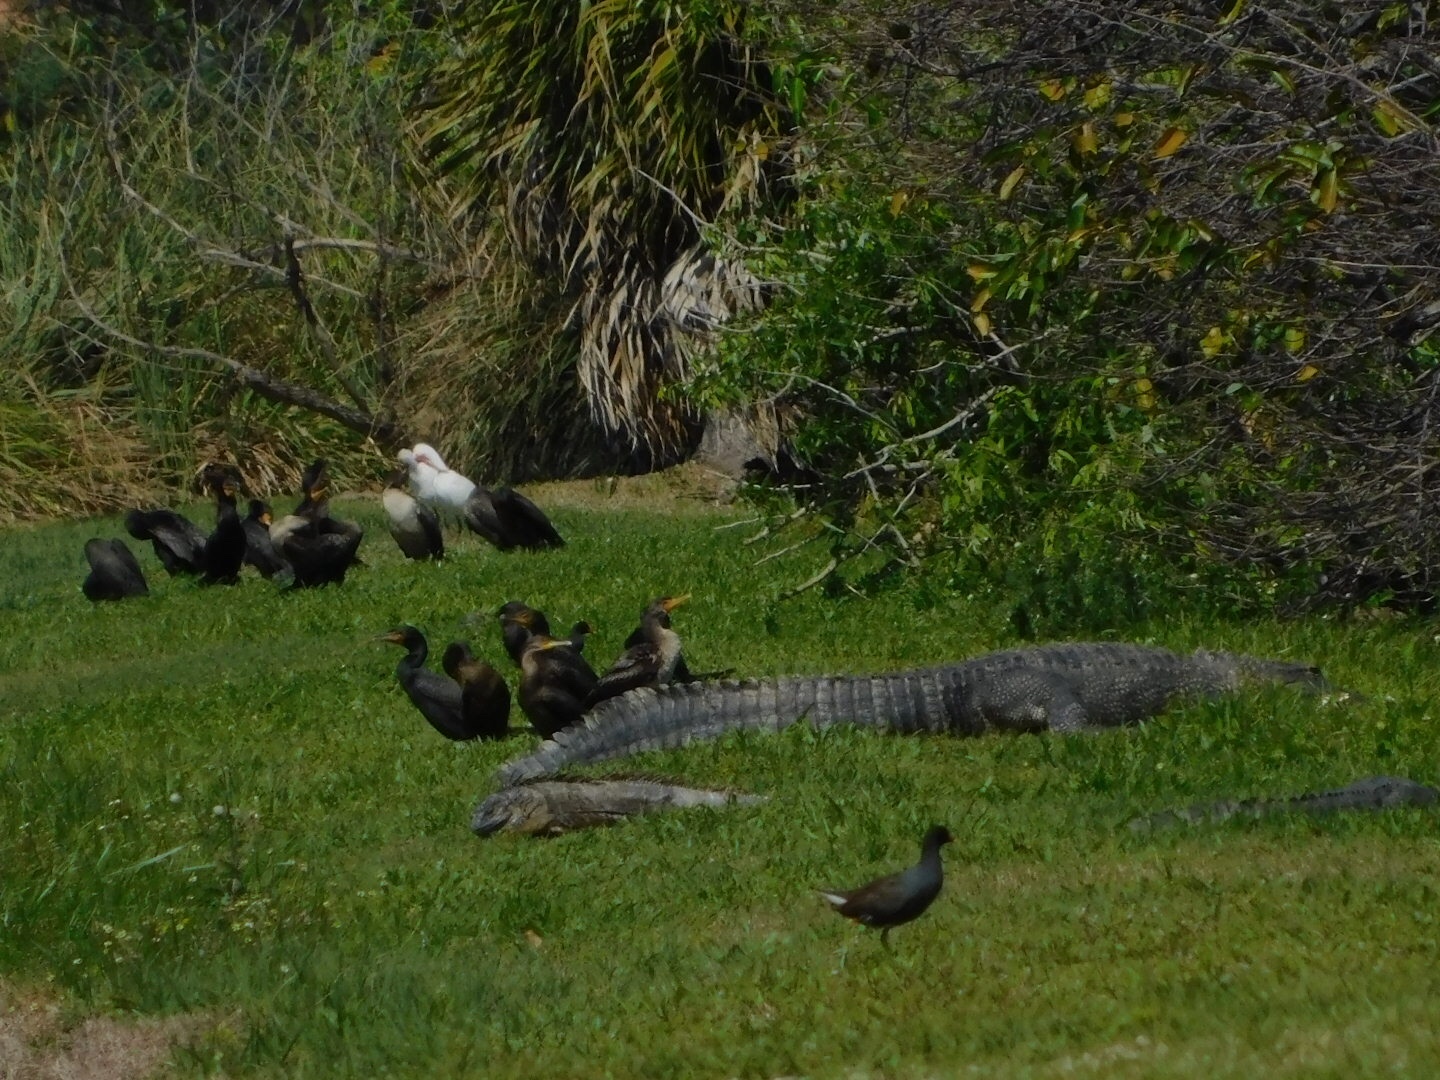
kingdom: Animalia
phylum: Chordata
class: Crocodylia
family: Alligatoridae
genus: Alligator
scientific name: Alligator mississippiensis
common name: American alligator
